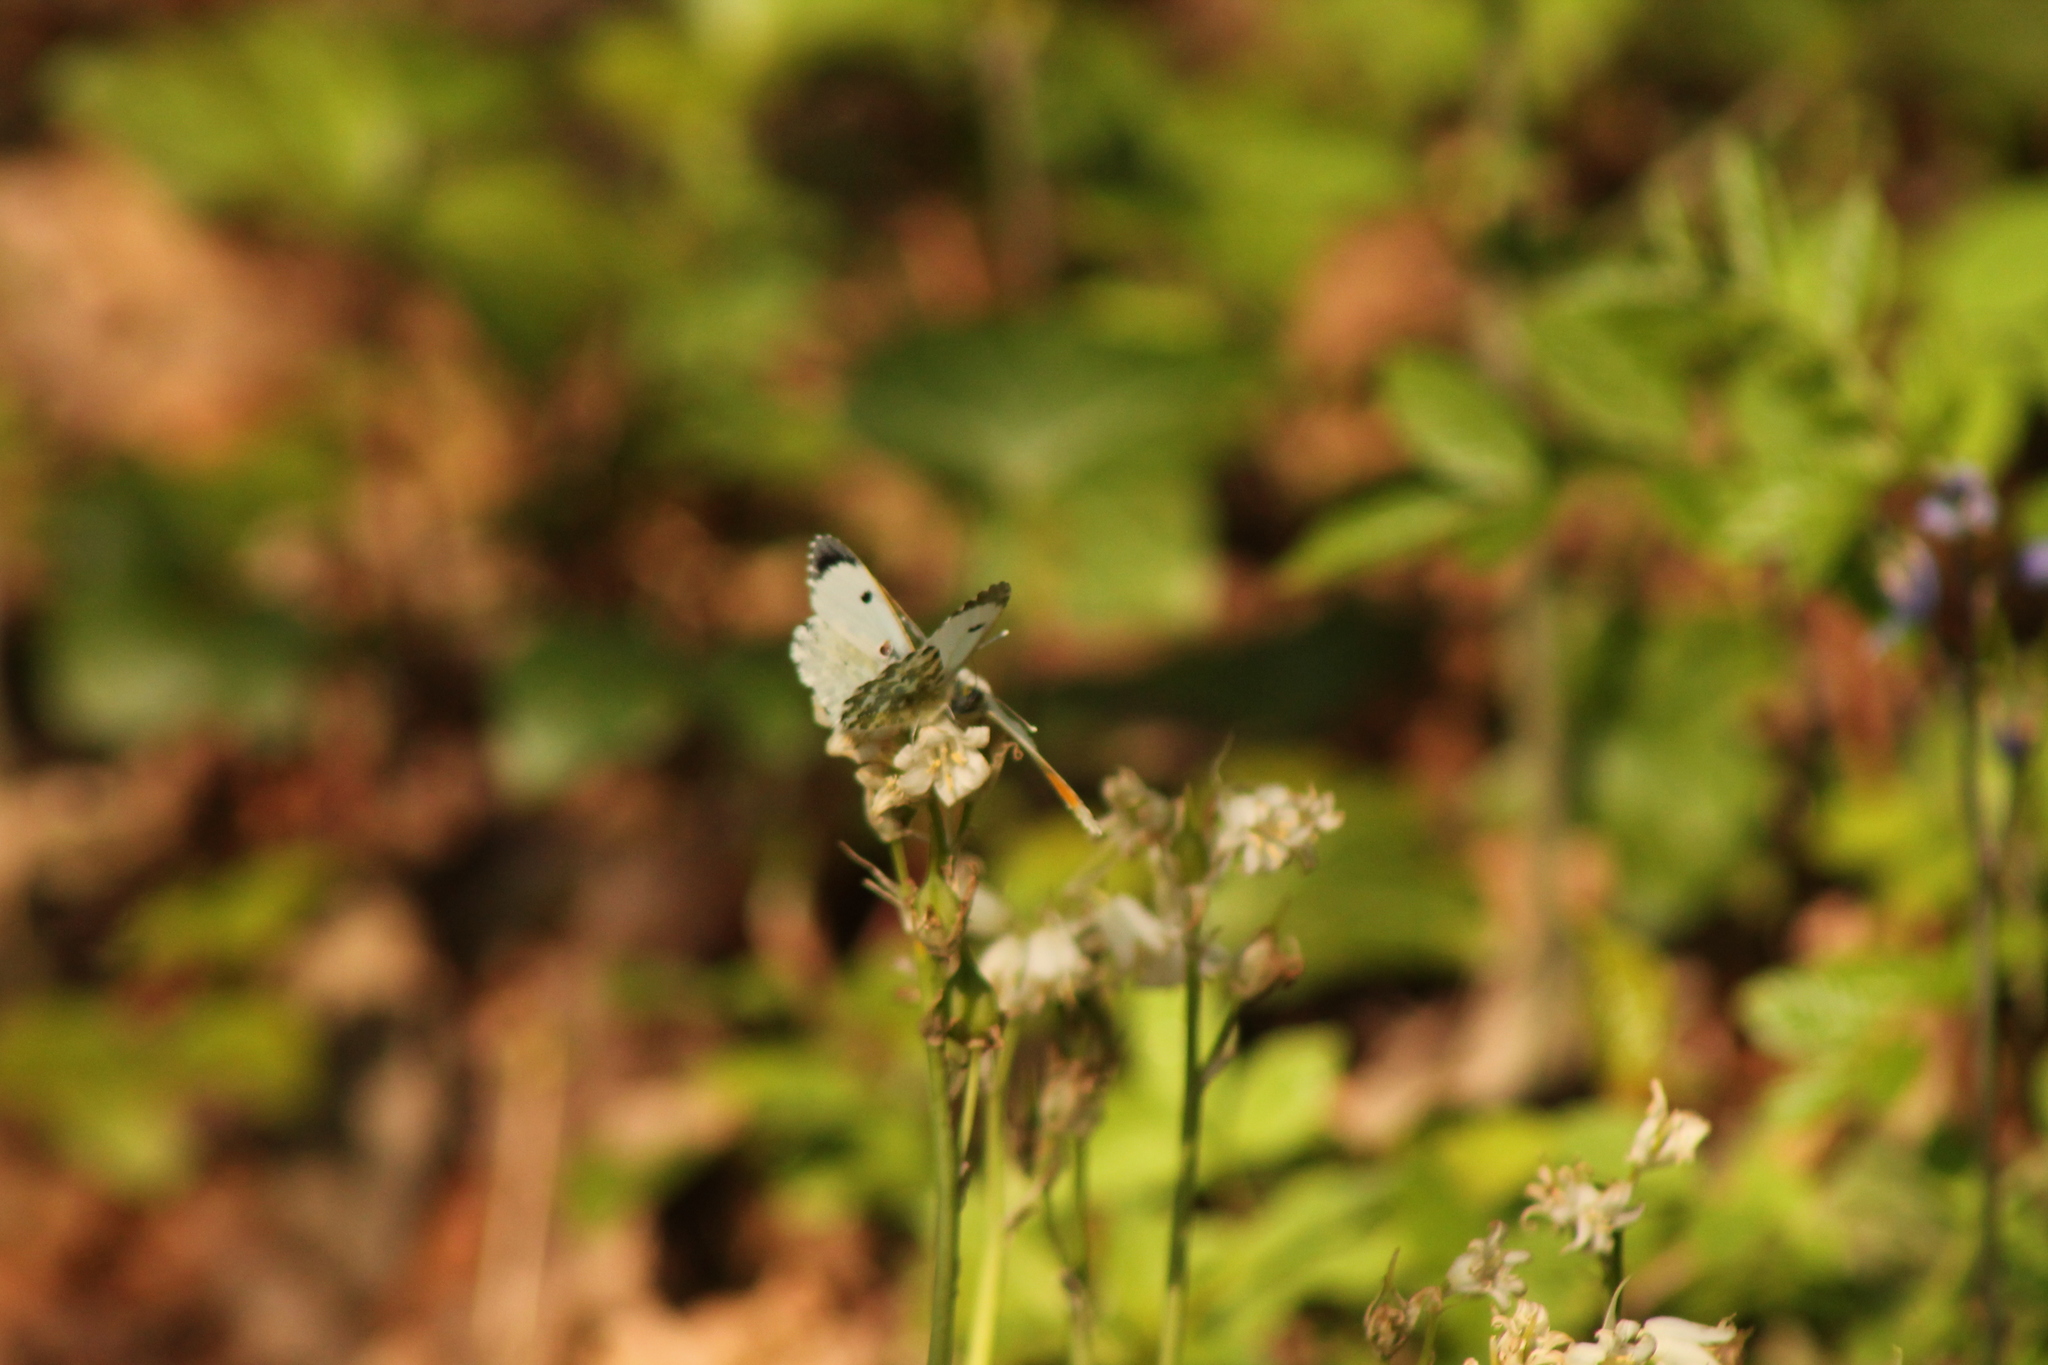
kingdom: Animalia
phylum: Arthropoda
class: Insecta
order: Lepidoptera
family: Pieridae
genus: Anthocharis
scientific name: Anthocharis cardamines
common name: Orange-tip
